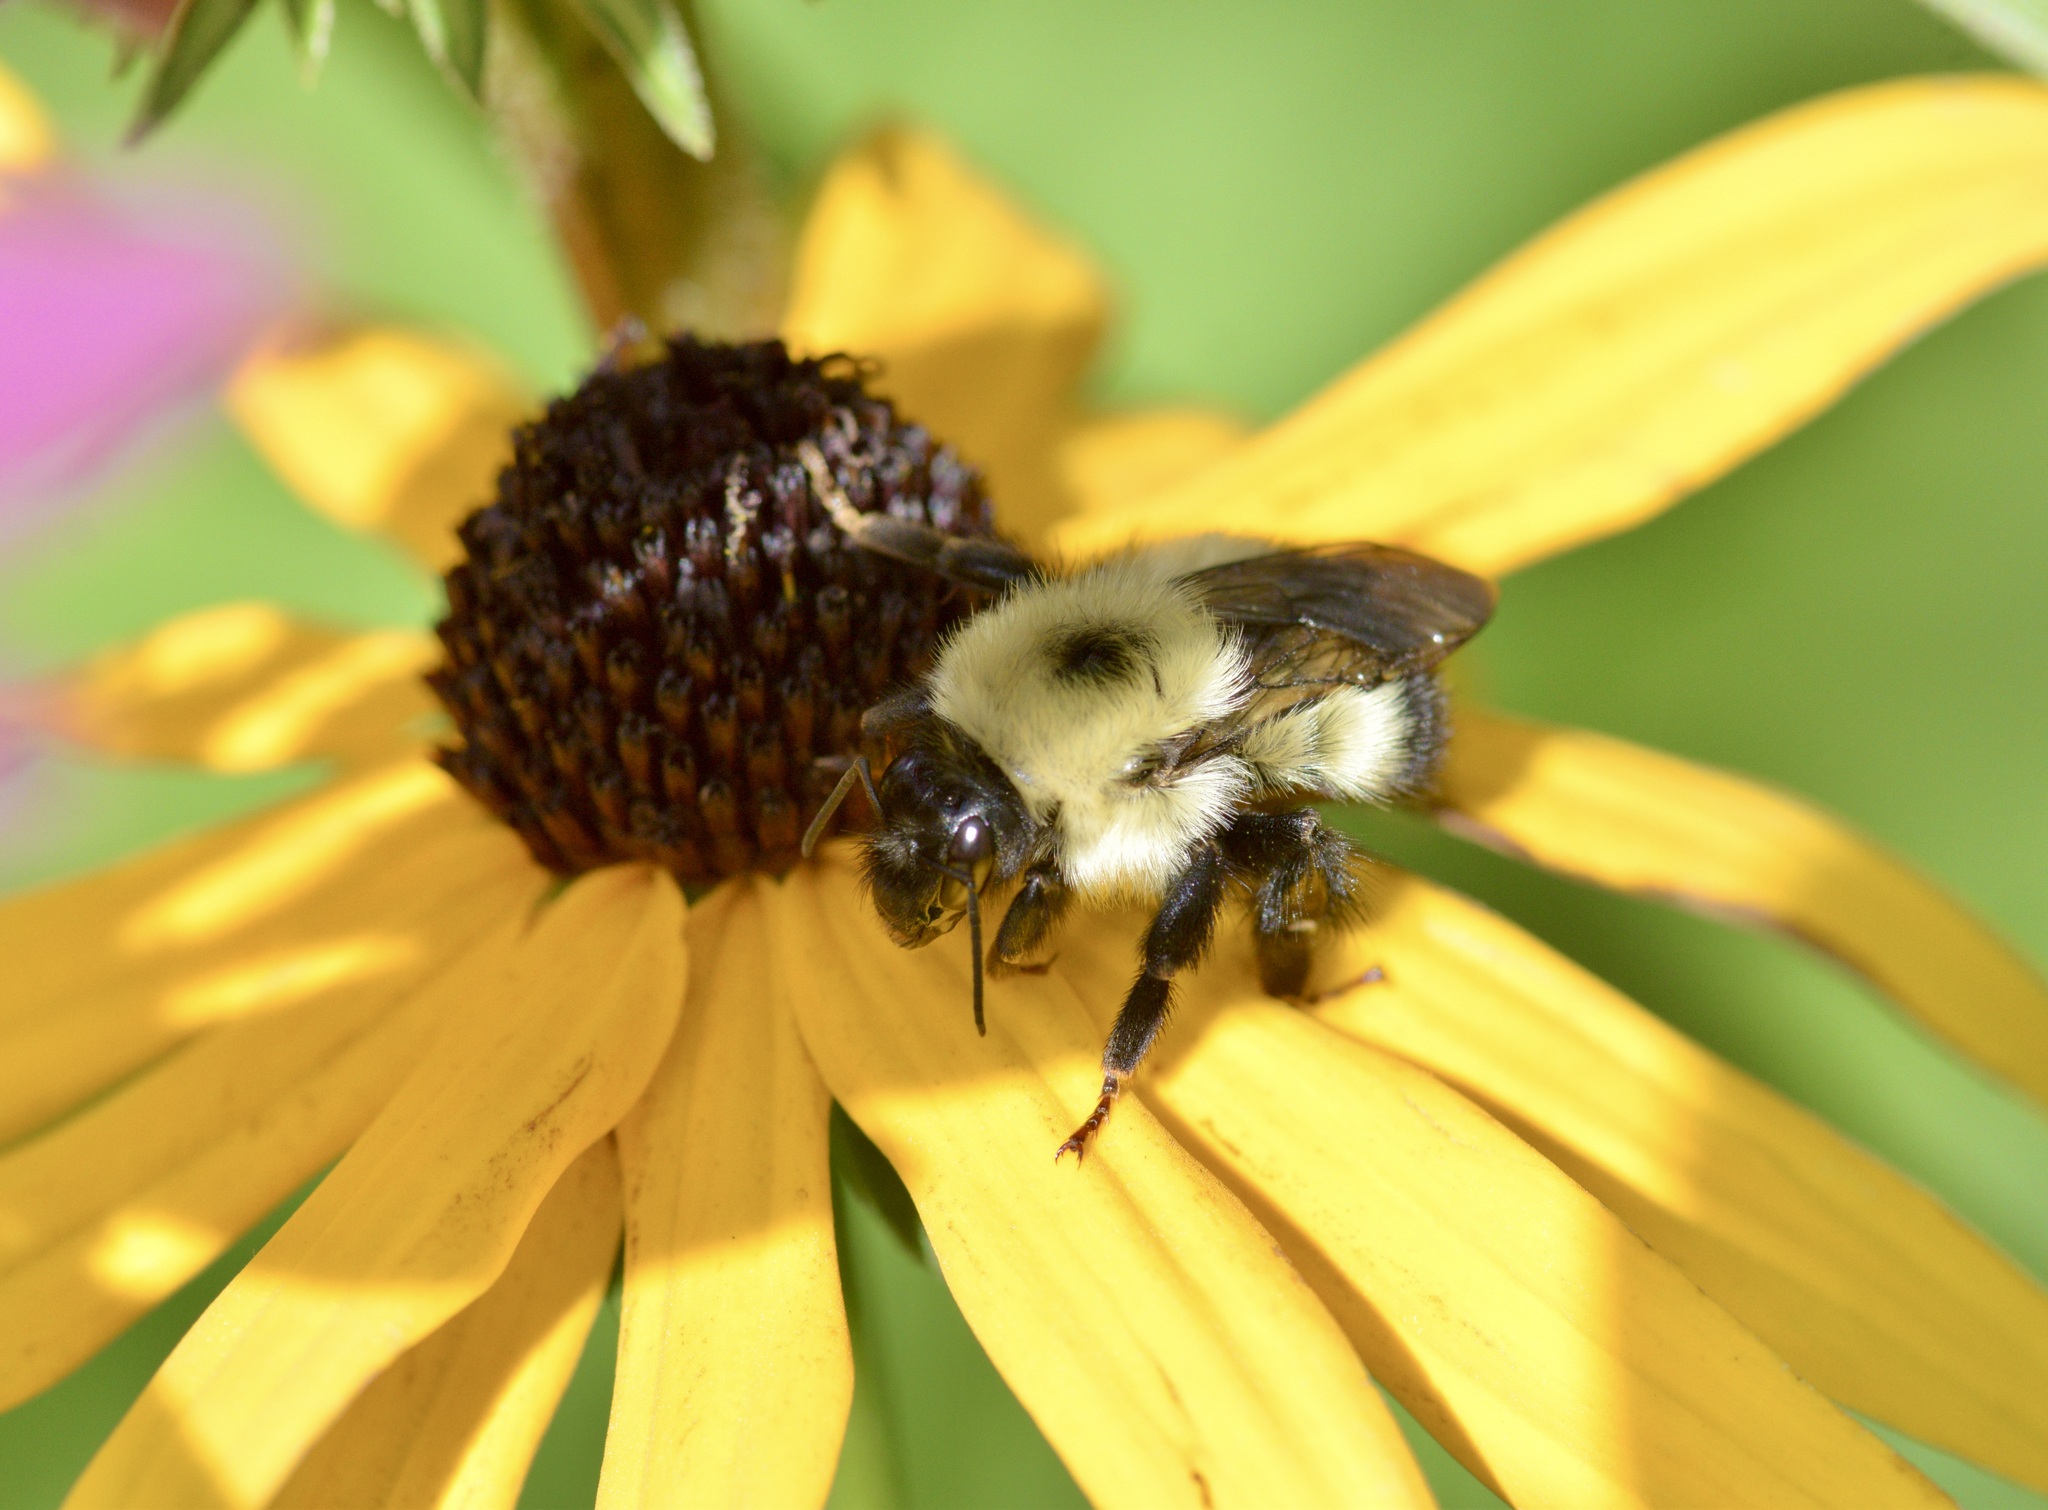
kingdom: Animalia
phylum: Arthropoda
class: Insecta
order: Hymenoptera
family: Apidae
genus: Bombus
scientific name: Bombus vagans
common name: Half-black bumble bee
